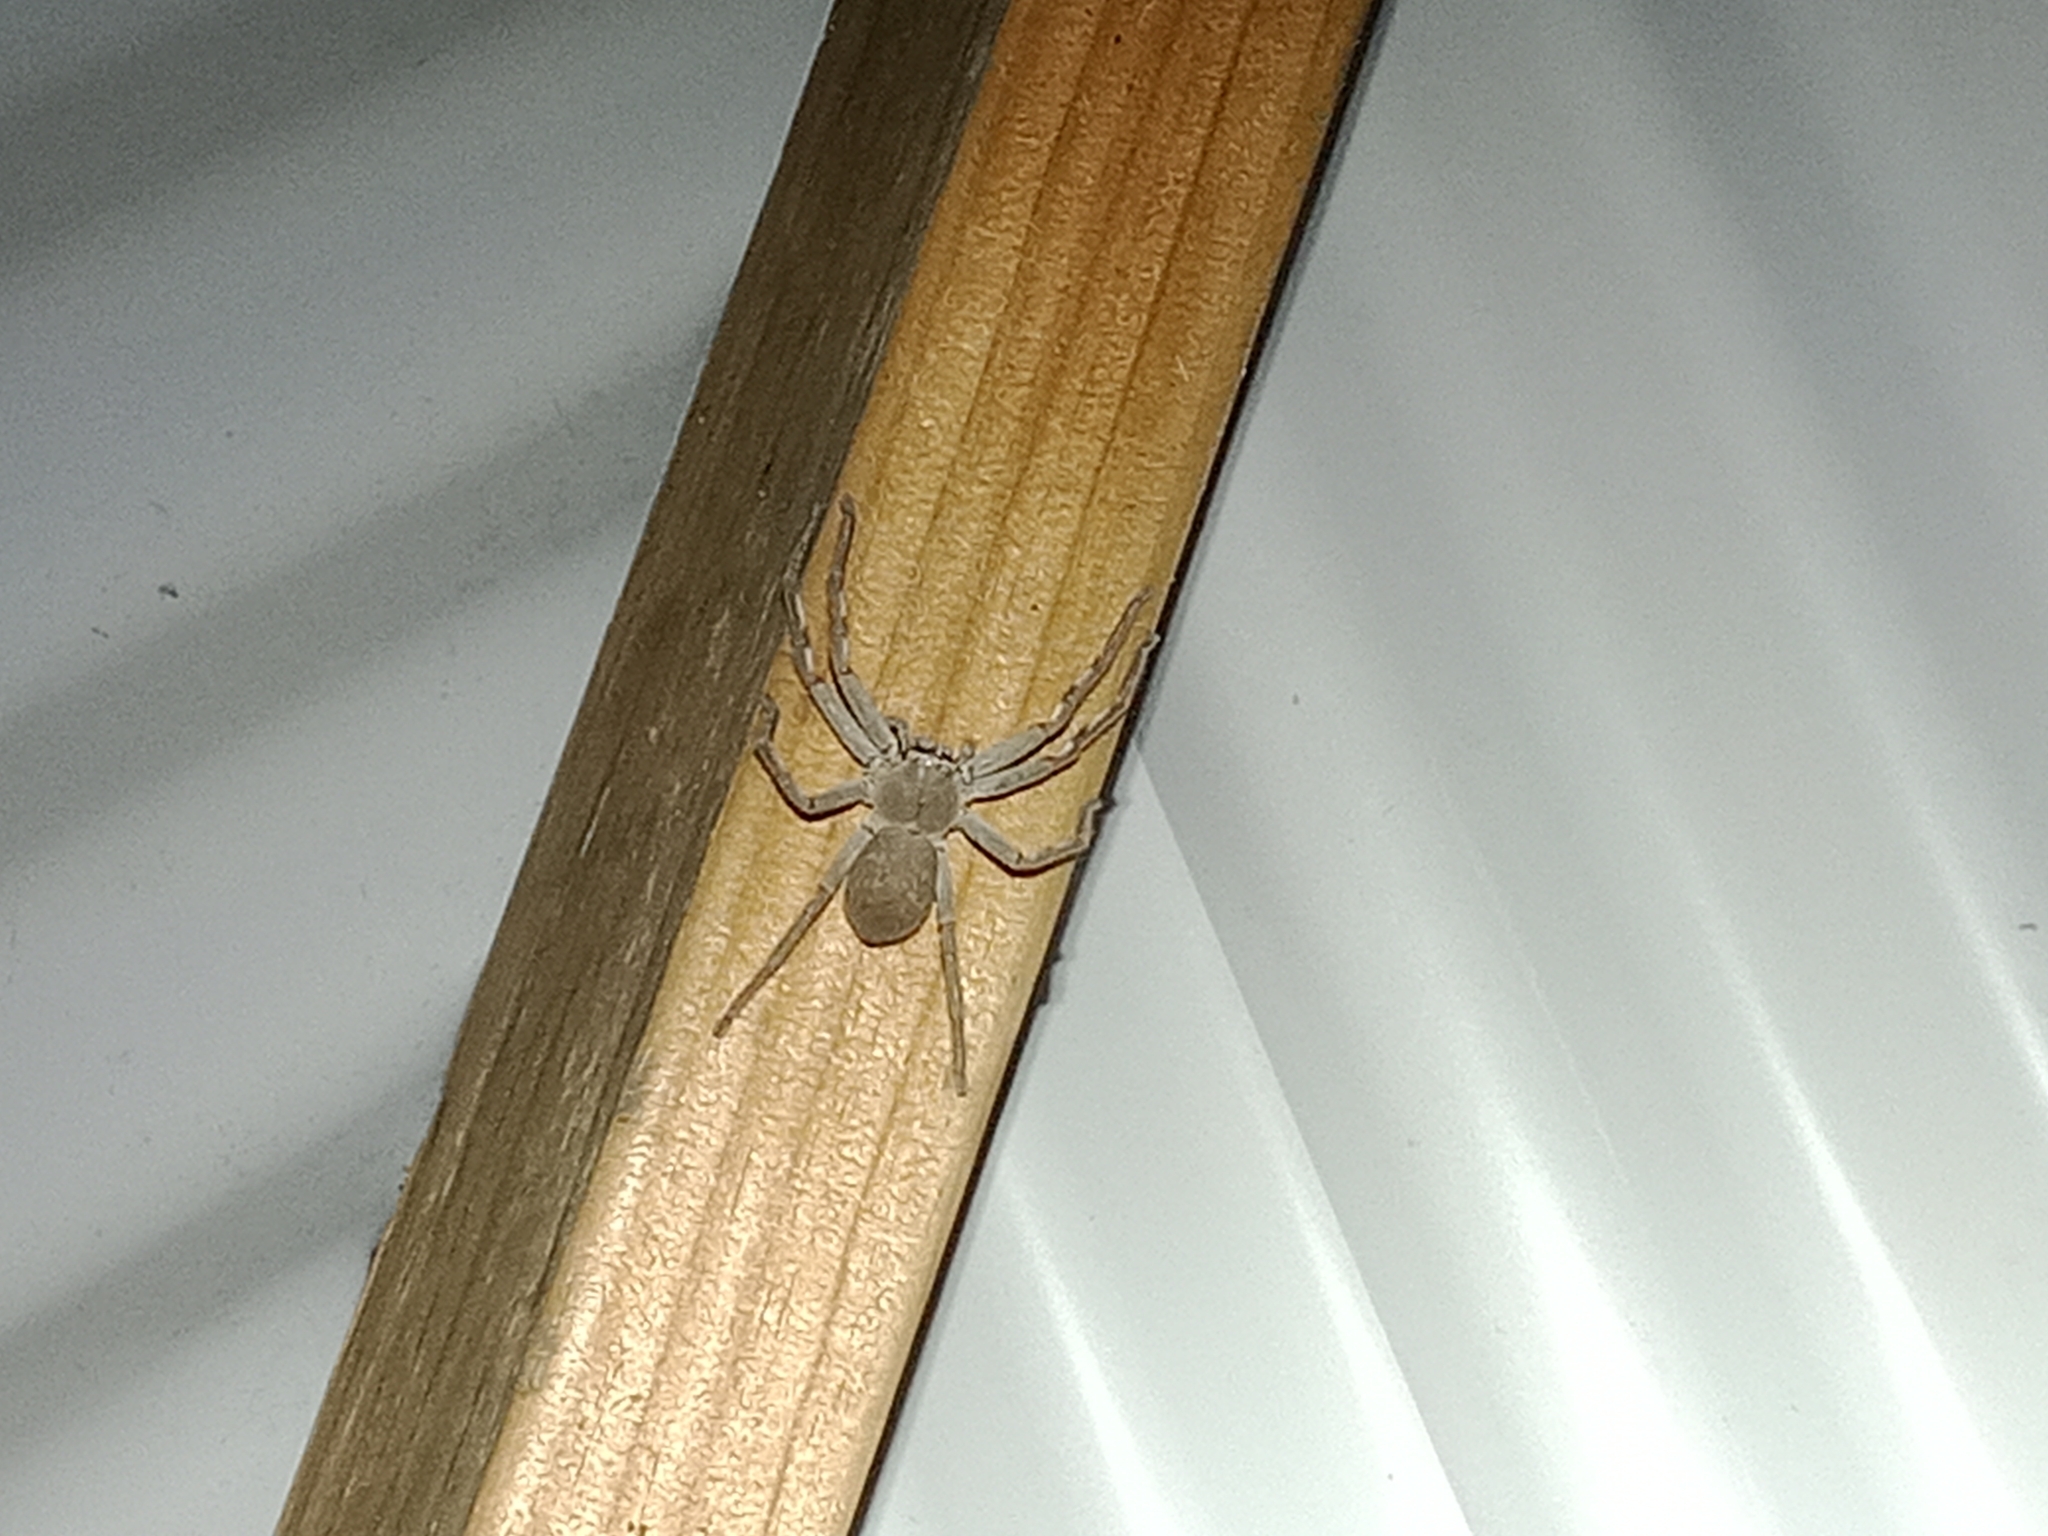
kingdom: Animalia
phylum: Arthropoda
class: Arachnida
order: Araneae
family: Sparassidae
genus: Isopedella
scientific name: Isopedella leai
